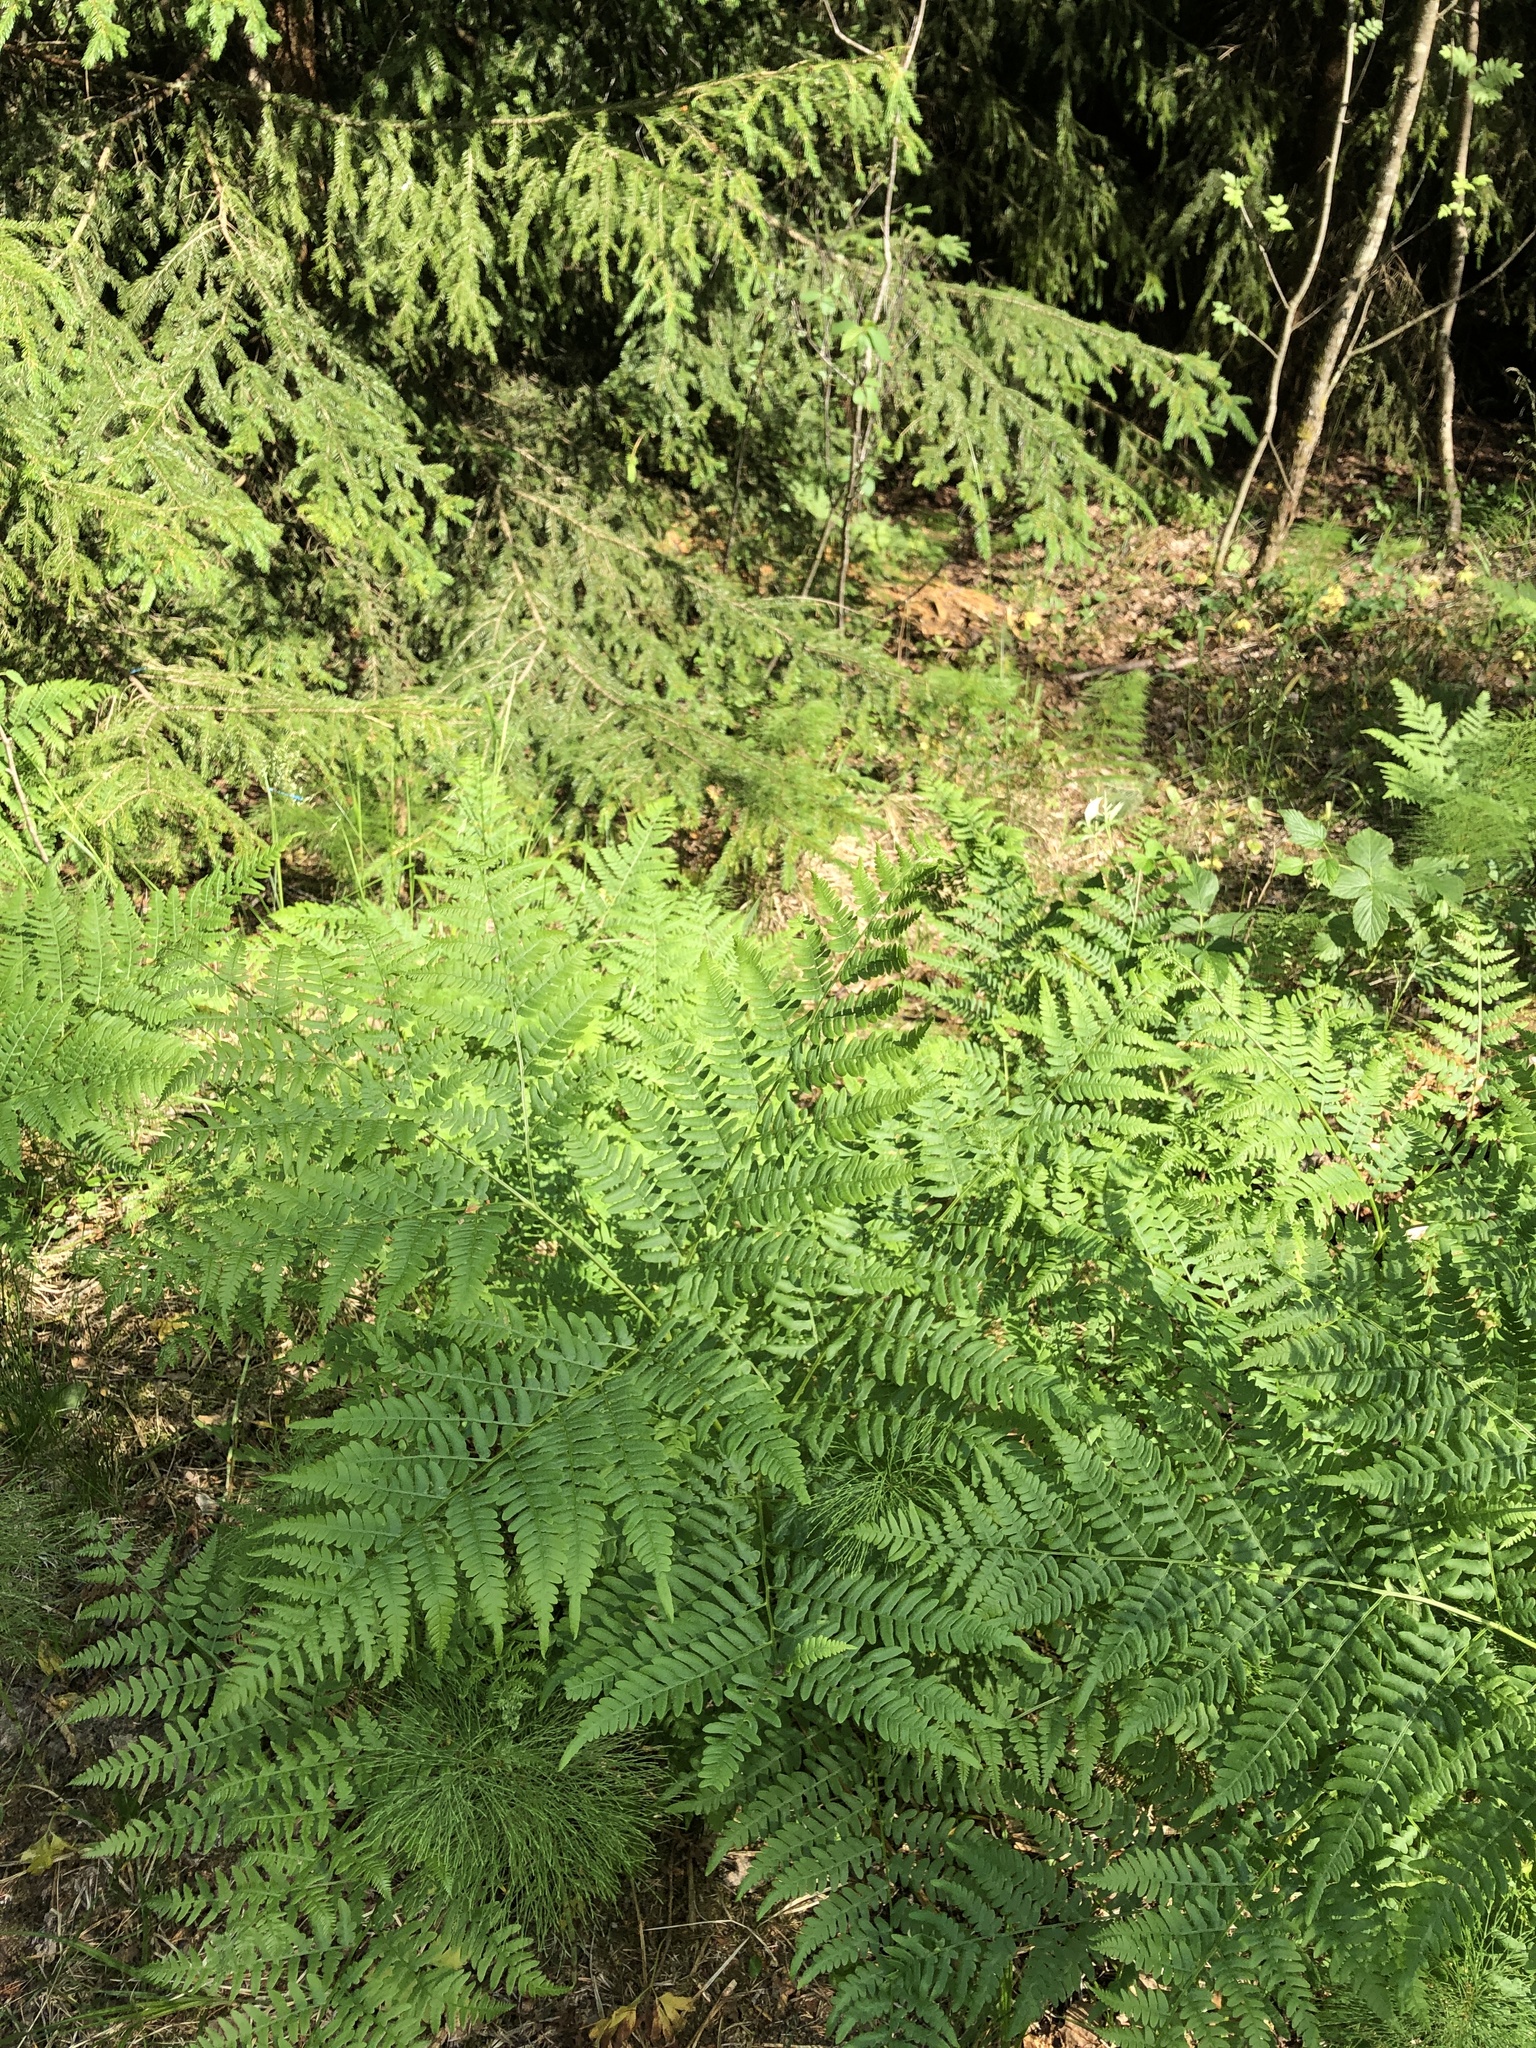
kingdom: Plantae
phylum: Tracheophyta
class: Polypodiopsida
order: Polypodiales
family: Dennstaedtiaceae
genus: Pteridium
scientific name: Pteridium aquilinum
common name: Bracken
